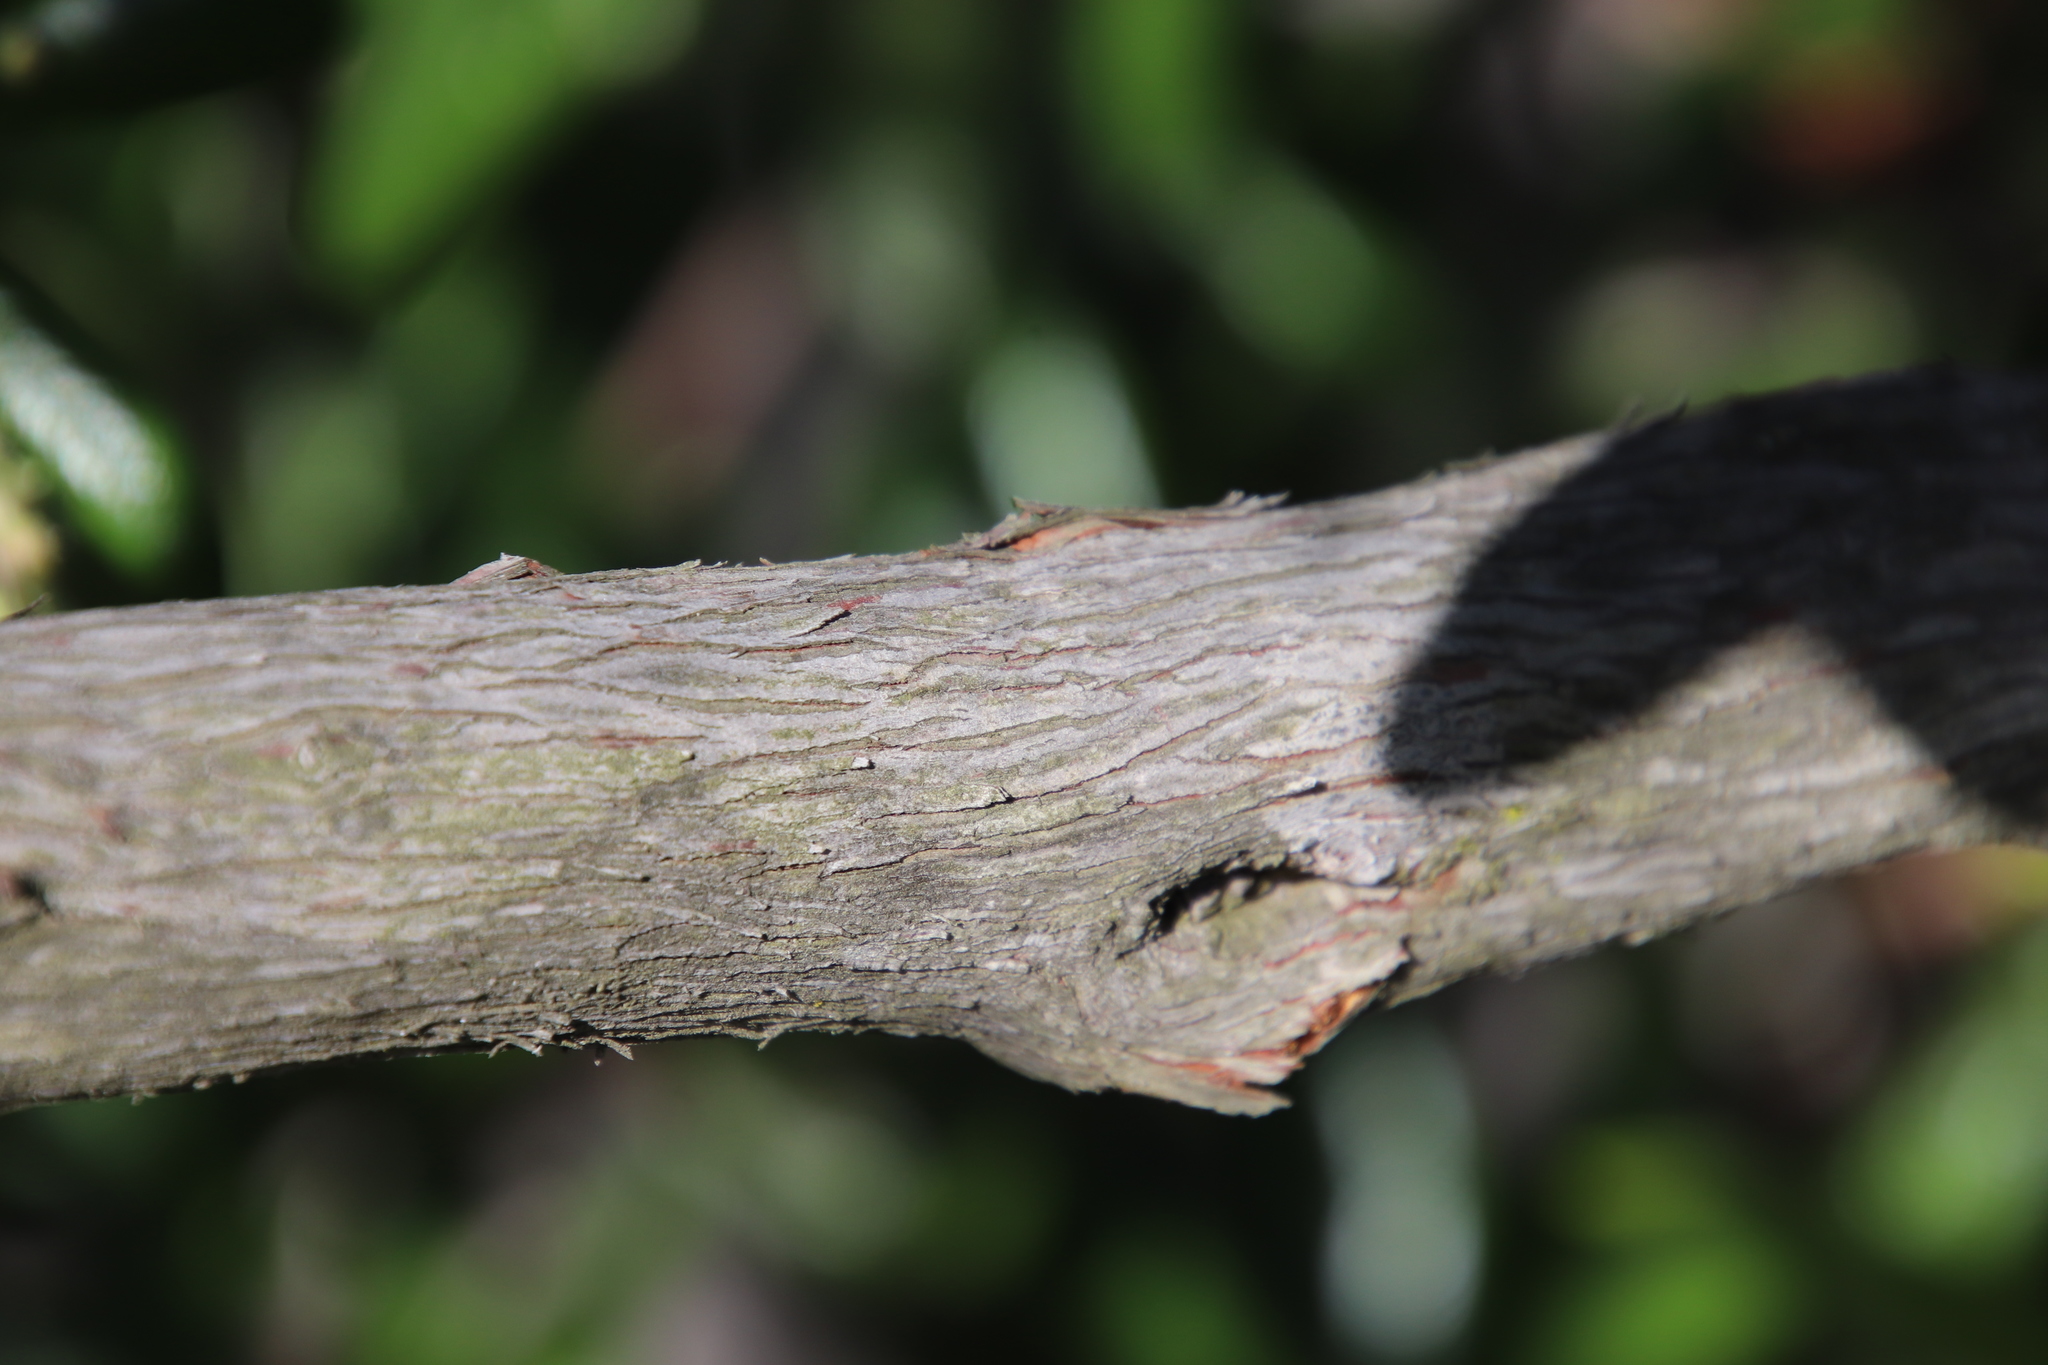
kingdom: Plantae
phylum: Tracheophyta
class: Magnoliopsida
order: Ericales
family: Ericaceae
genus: Comarostaphylis
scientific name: Comarostaphylis diversifolia
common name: Summer-holly
